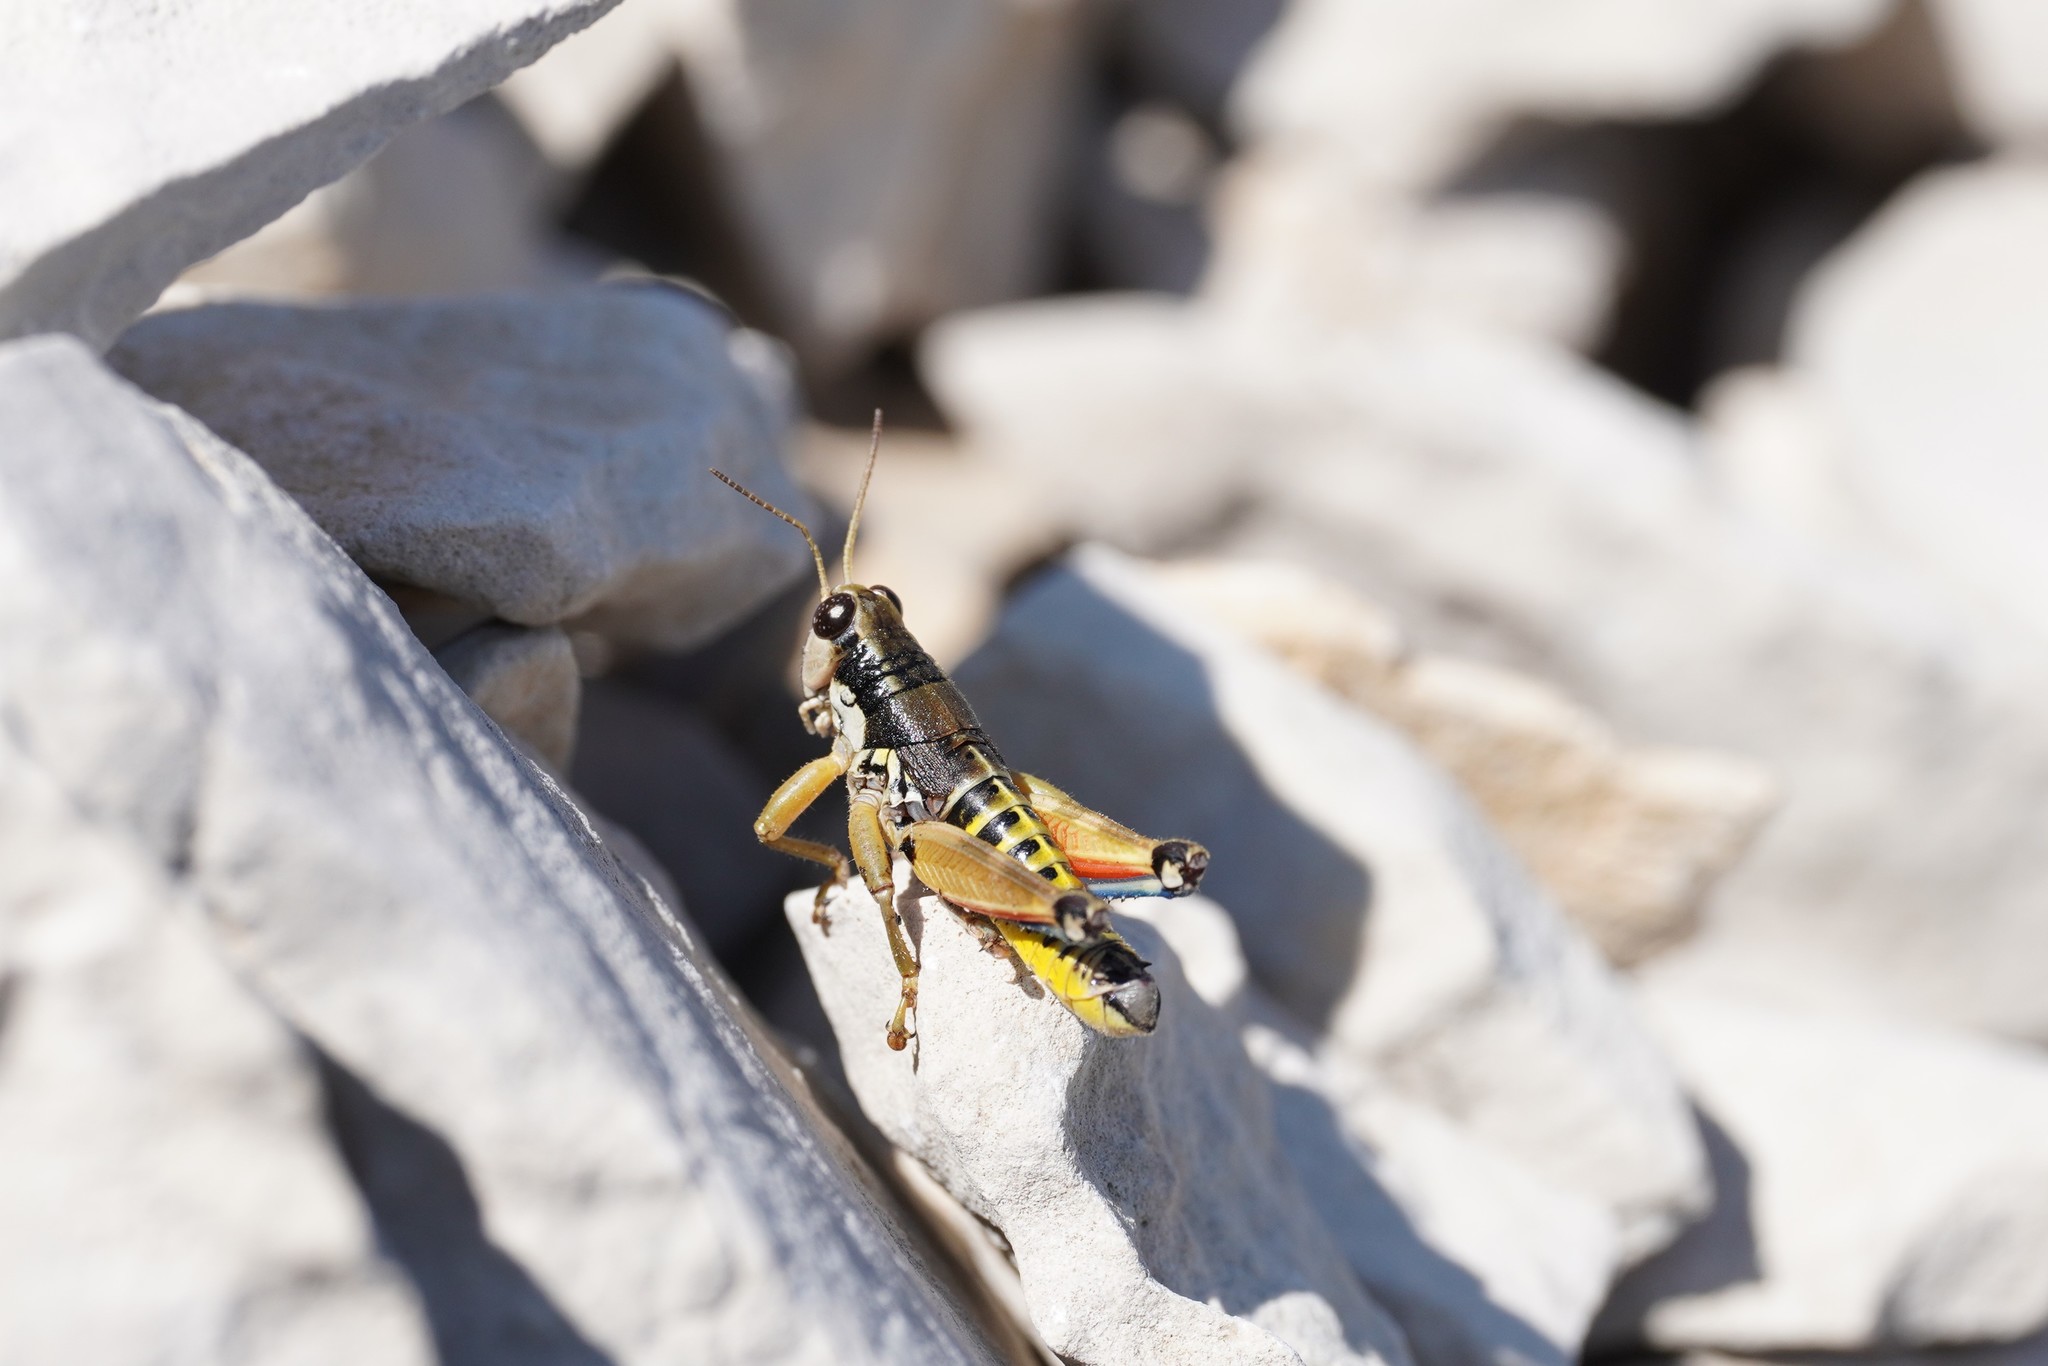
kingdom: Animalia
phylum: Arthropoda
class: Insecta
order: Orthoptera
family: Acrididae
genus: Podisma
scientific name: Podisma amedegnatoae
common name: Ventoux mountain grasshopper
